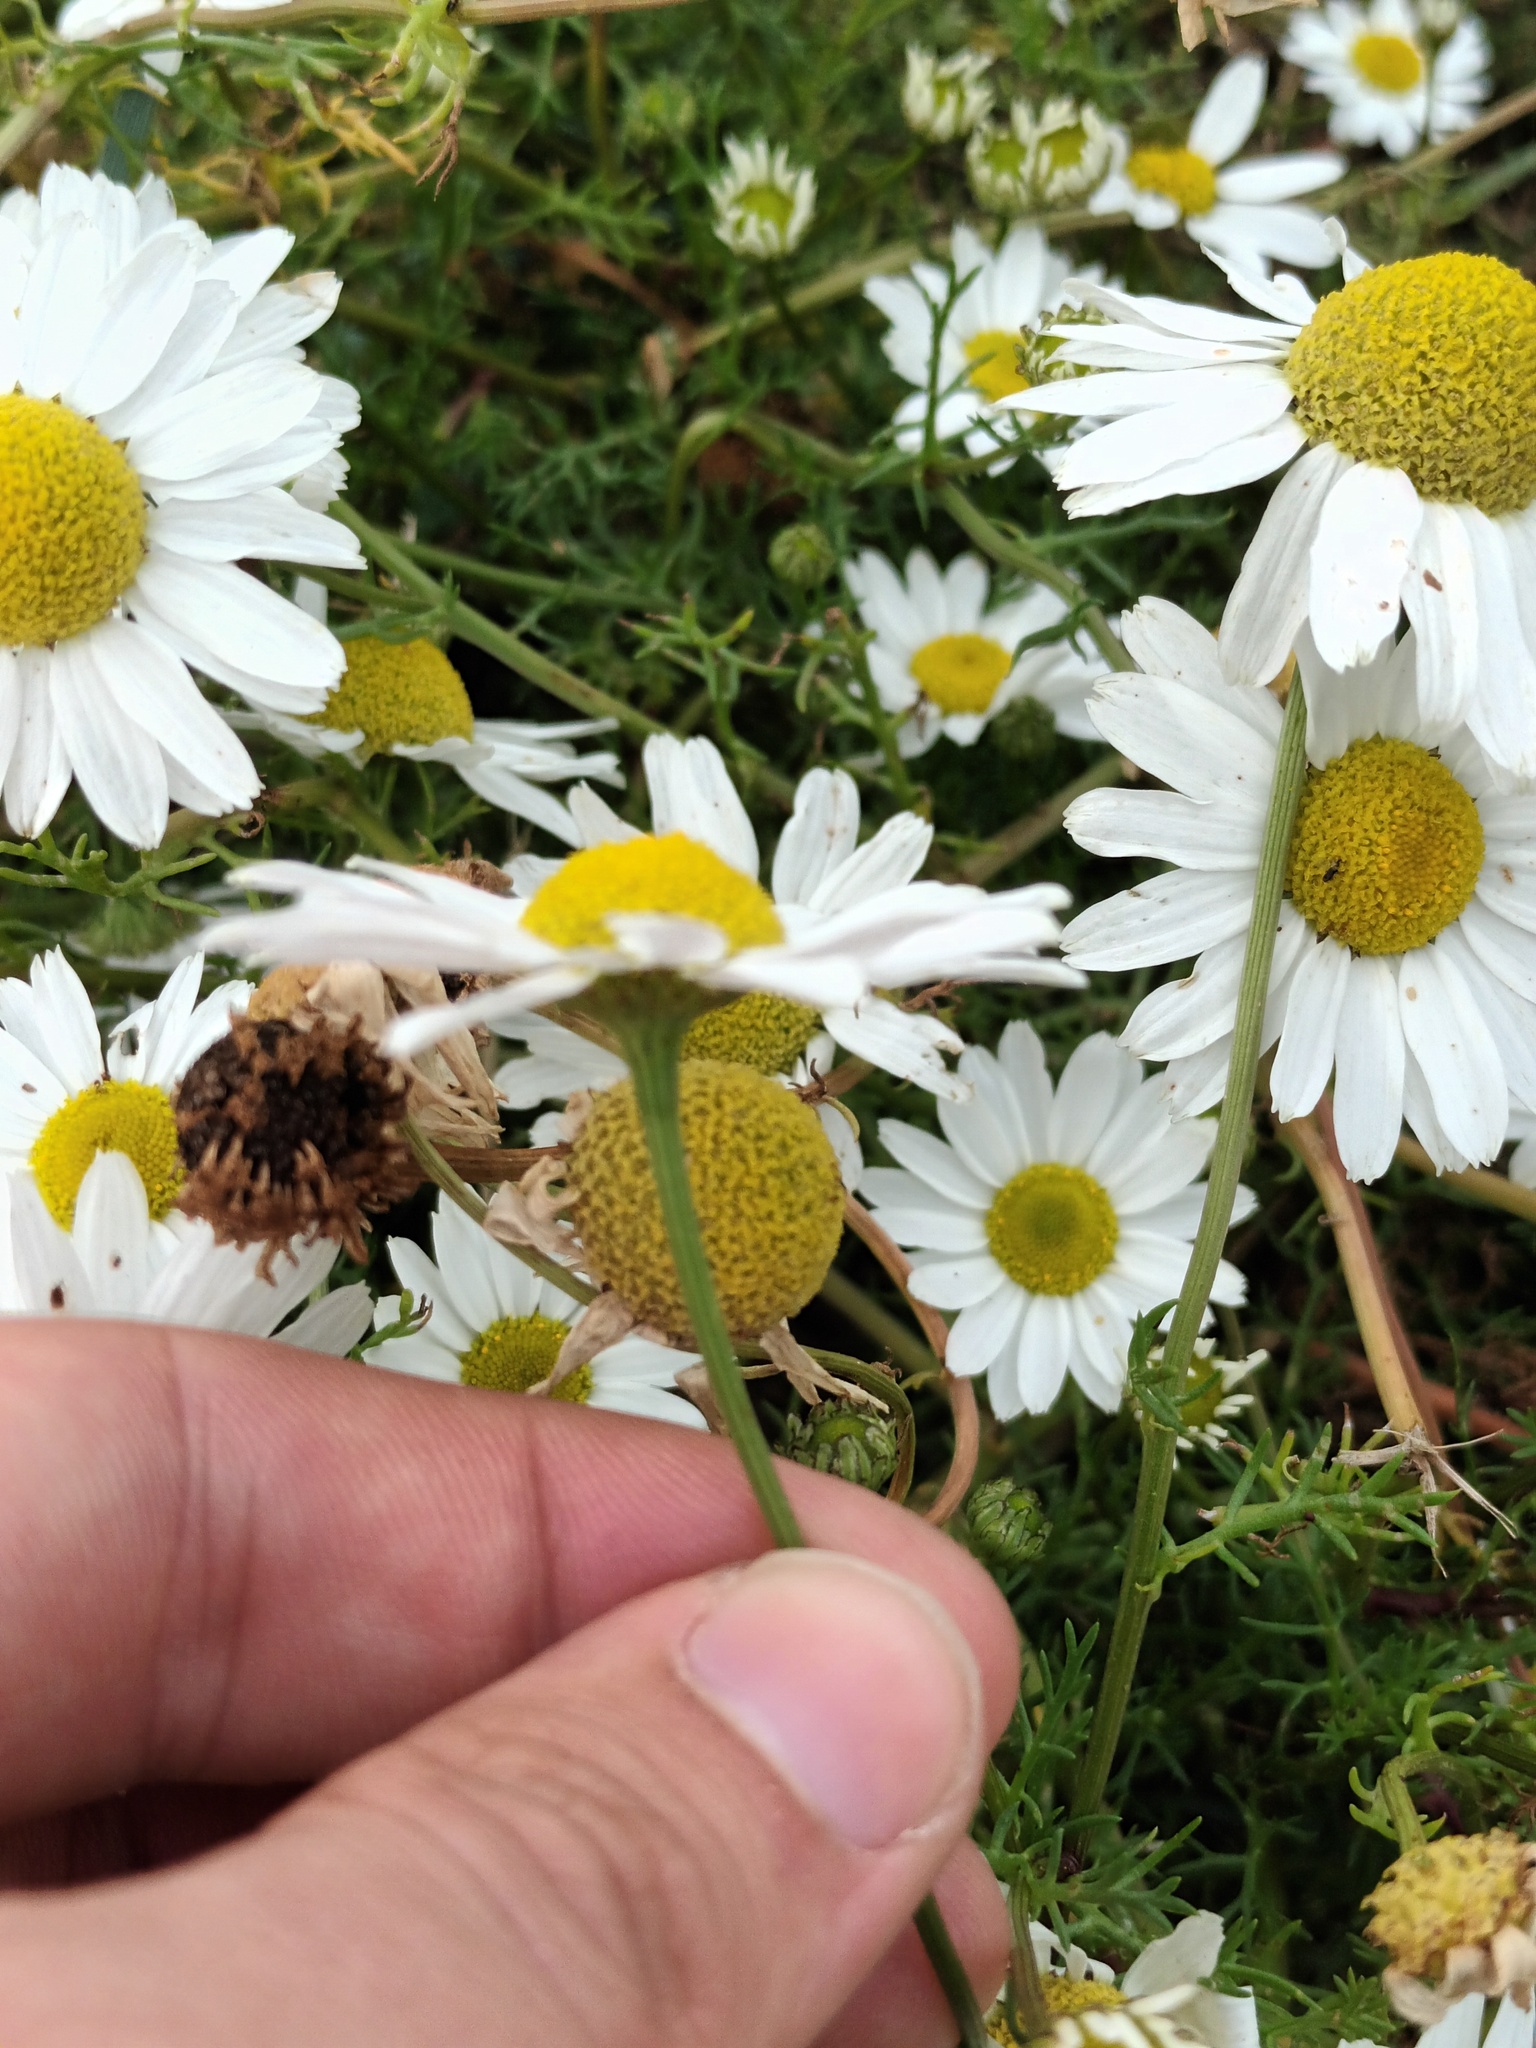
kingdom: Plantae
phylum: Tracheophyta
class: Magnoliopsida
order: Asterales
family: Asteraceae
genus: Tripleurospermum
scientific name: Tripleurospermum maritimum
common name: Sea mayweed
